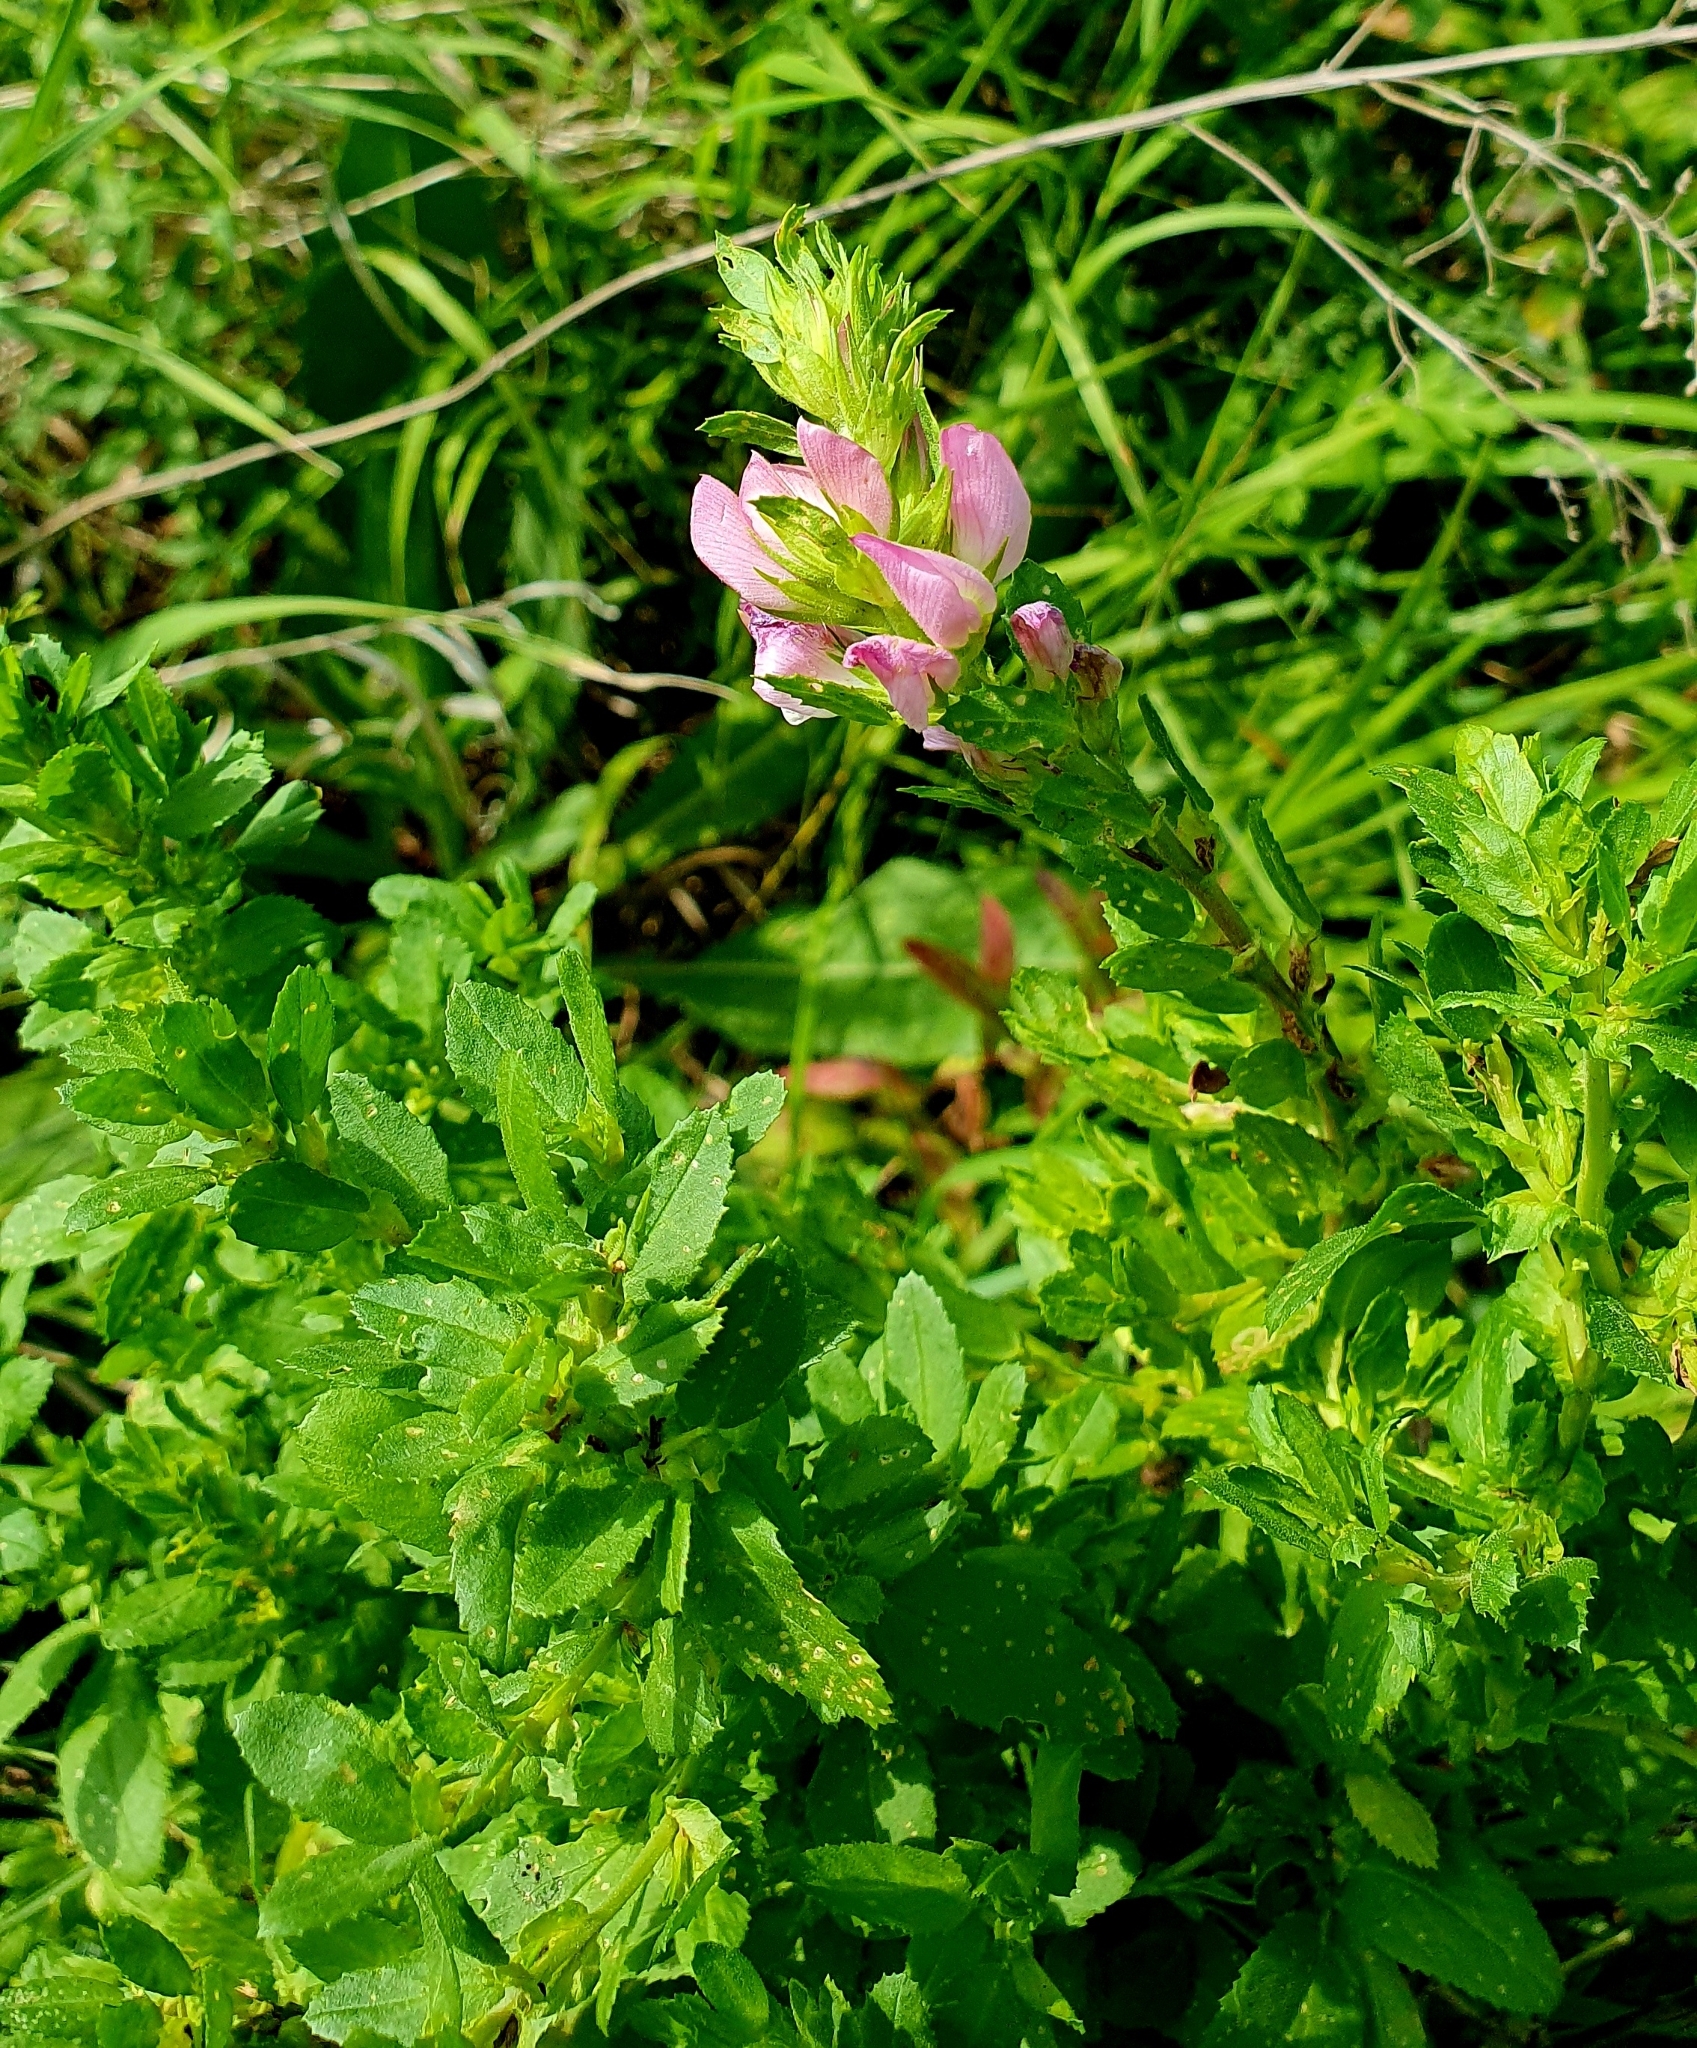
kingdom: Plantae
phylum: Tracheophyta
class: Magnoliopsida
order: Fabales
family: Fabaceae
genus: Ononis
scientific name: Ononis arvensis
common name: Field restharrow
